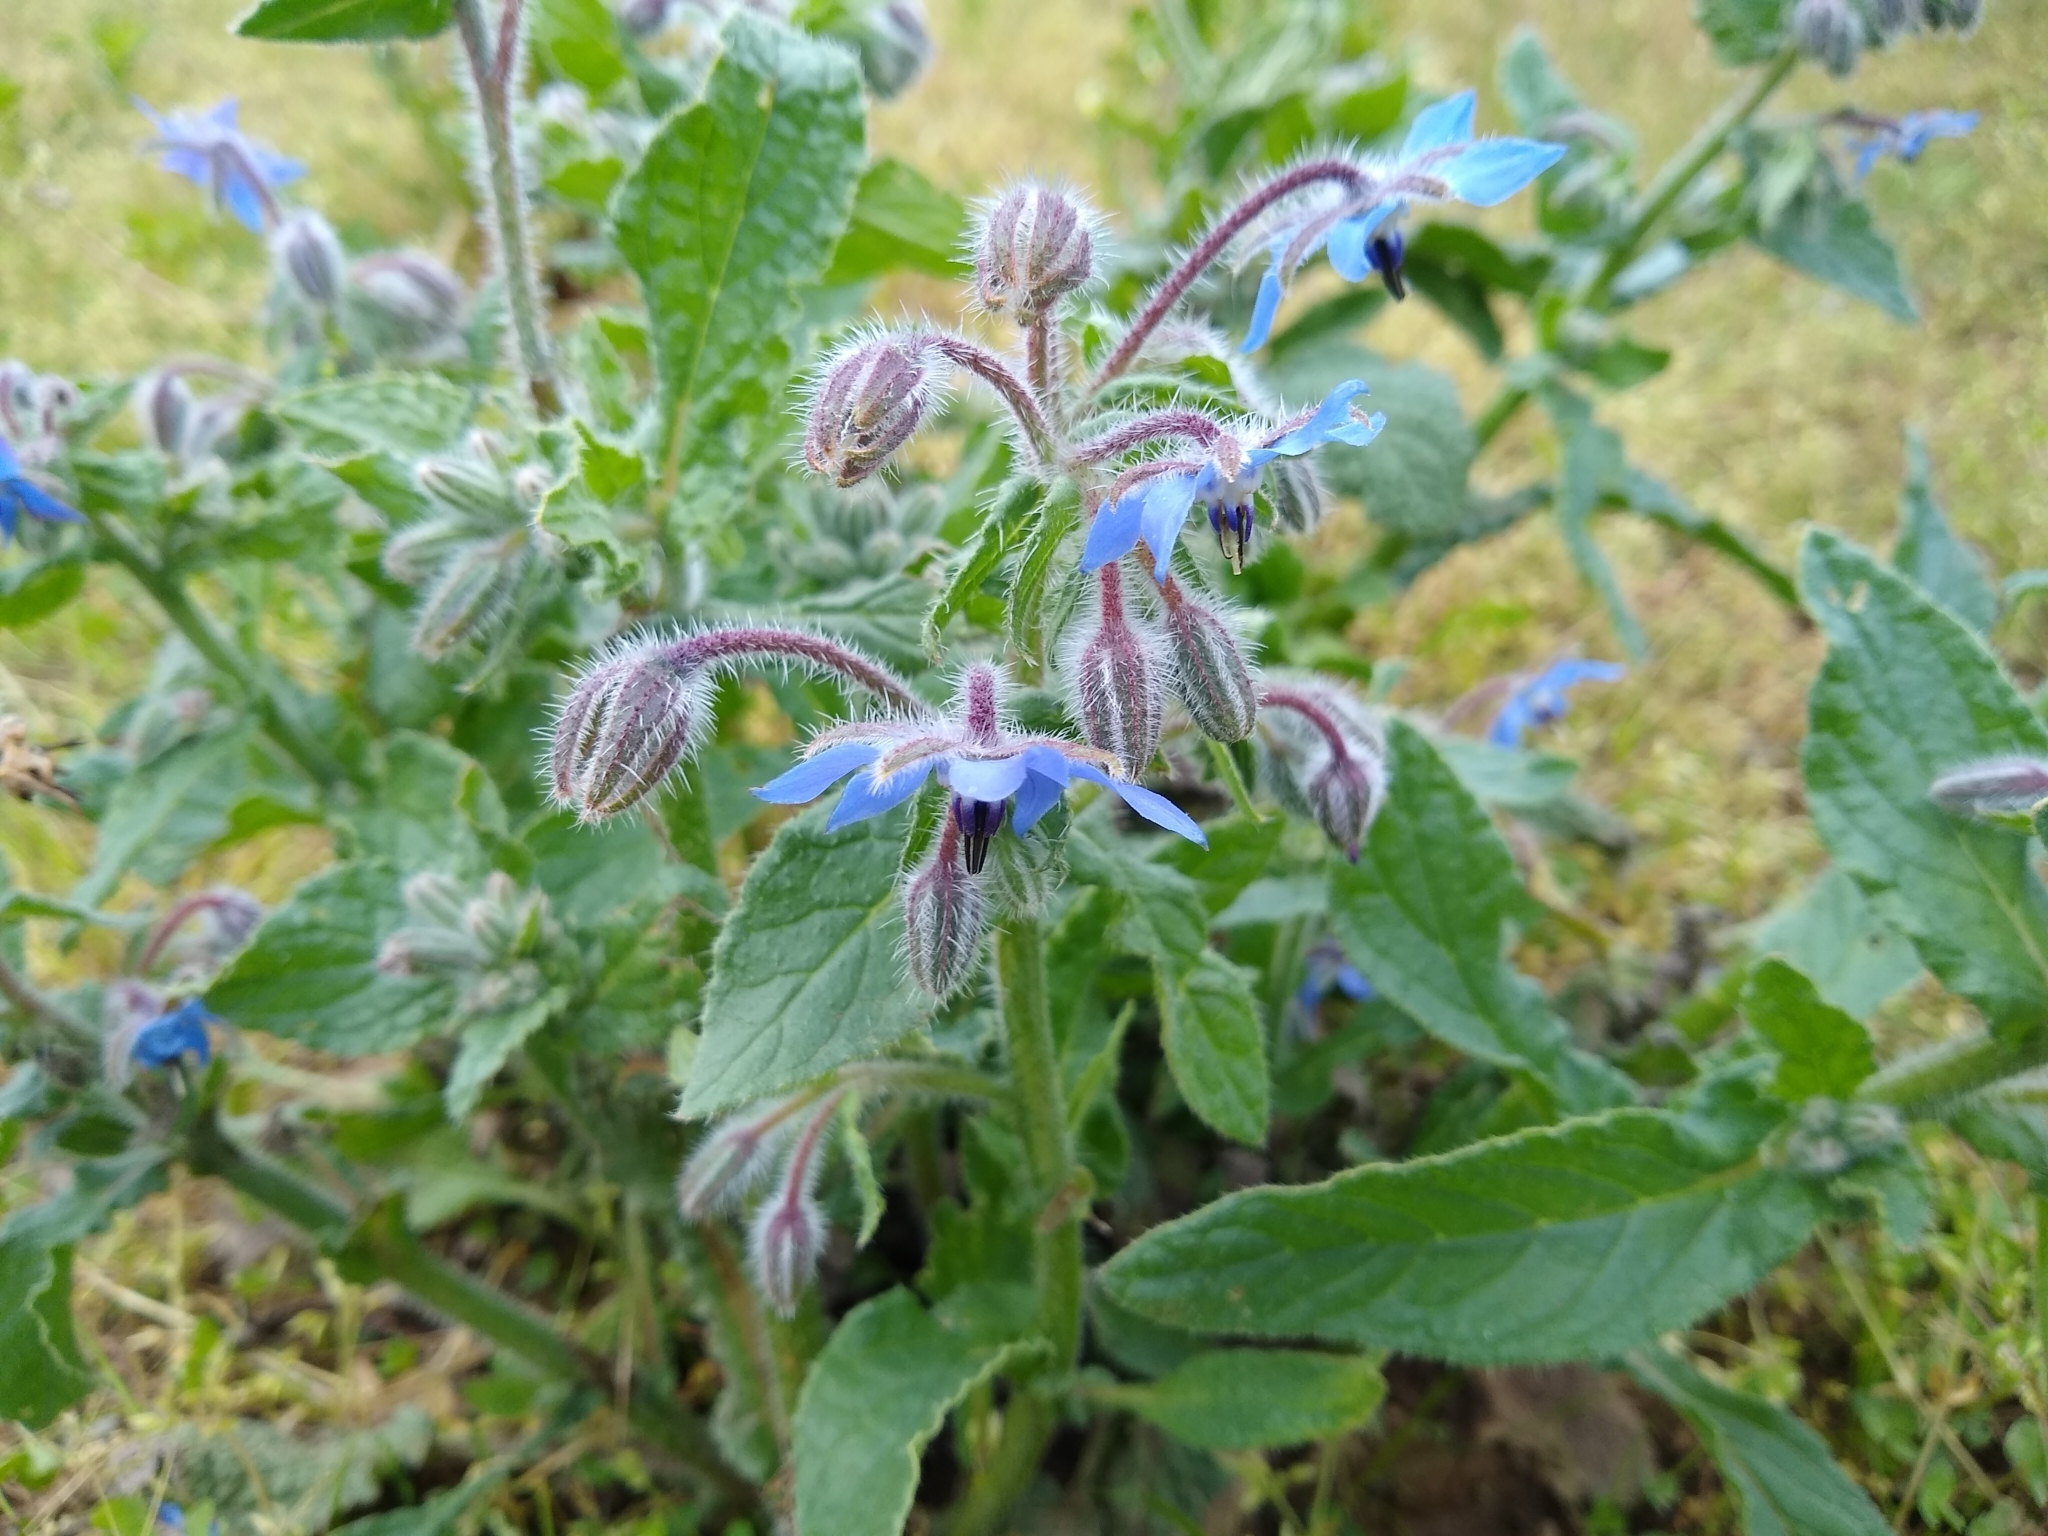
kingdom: Plantae
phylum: Tracheophyta
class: Magnoliopsida
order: Boraginales
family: Boraginaceae
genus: Borago
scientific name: Borago officinalis
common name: Borage
